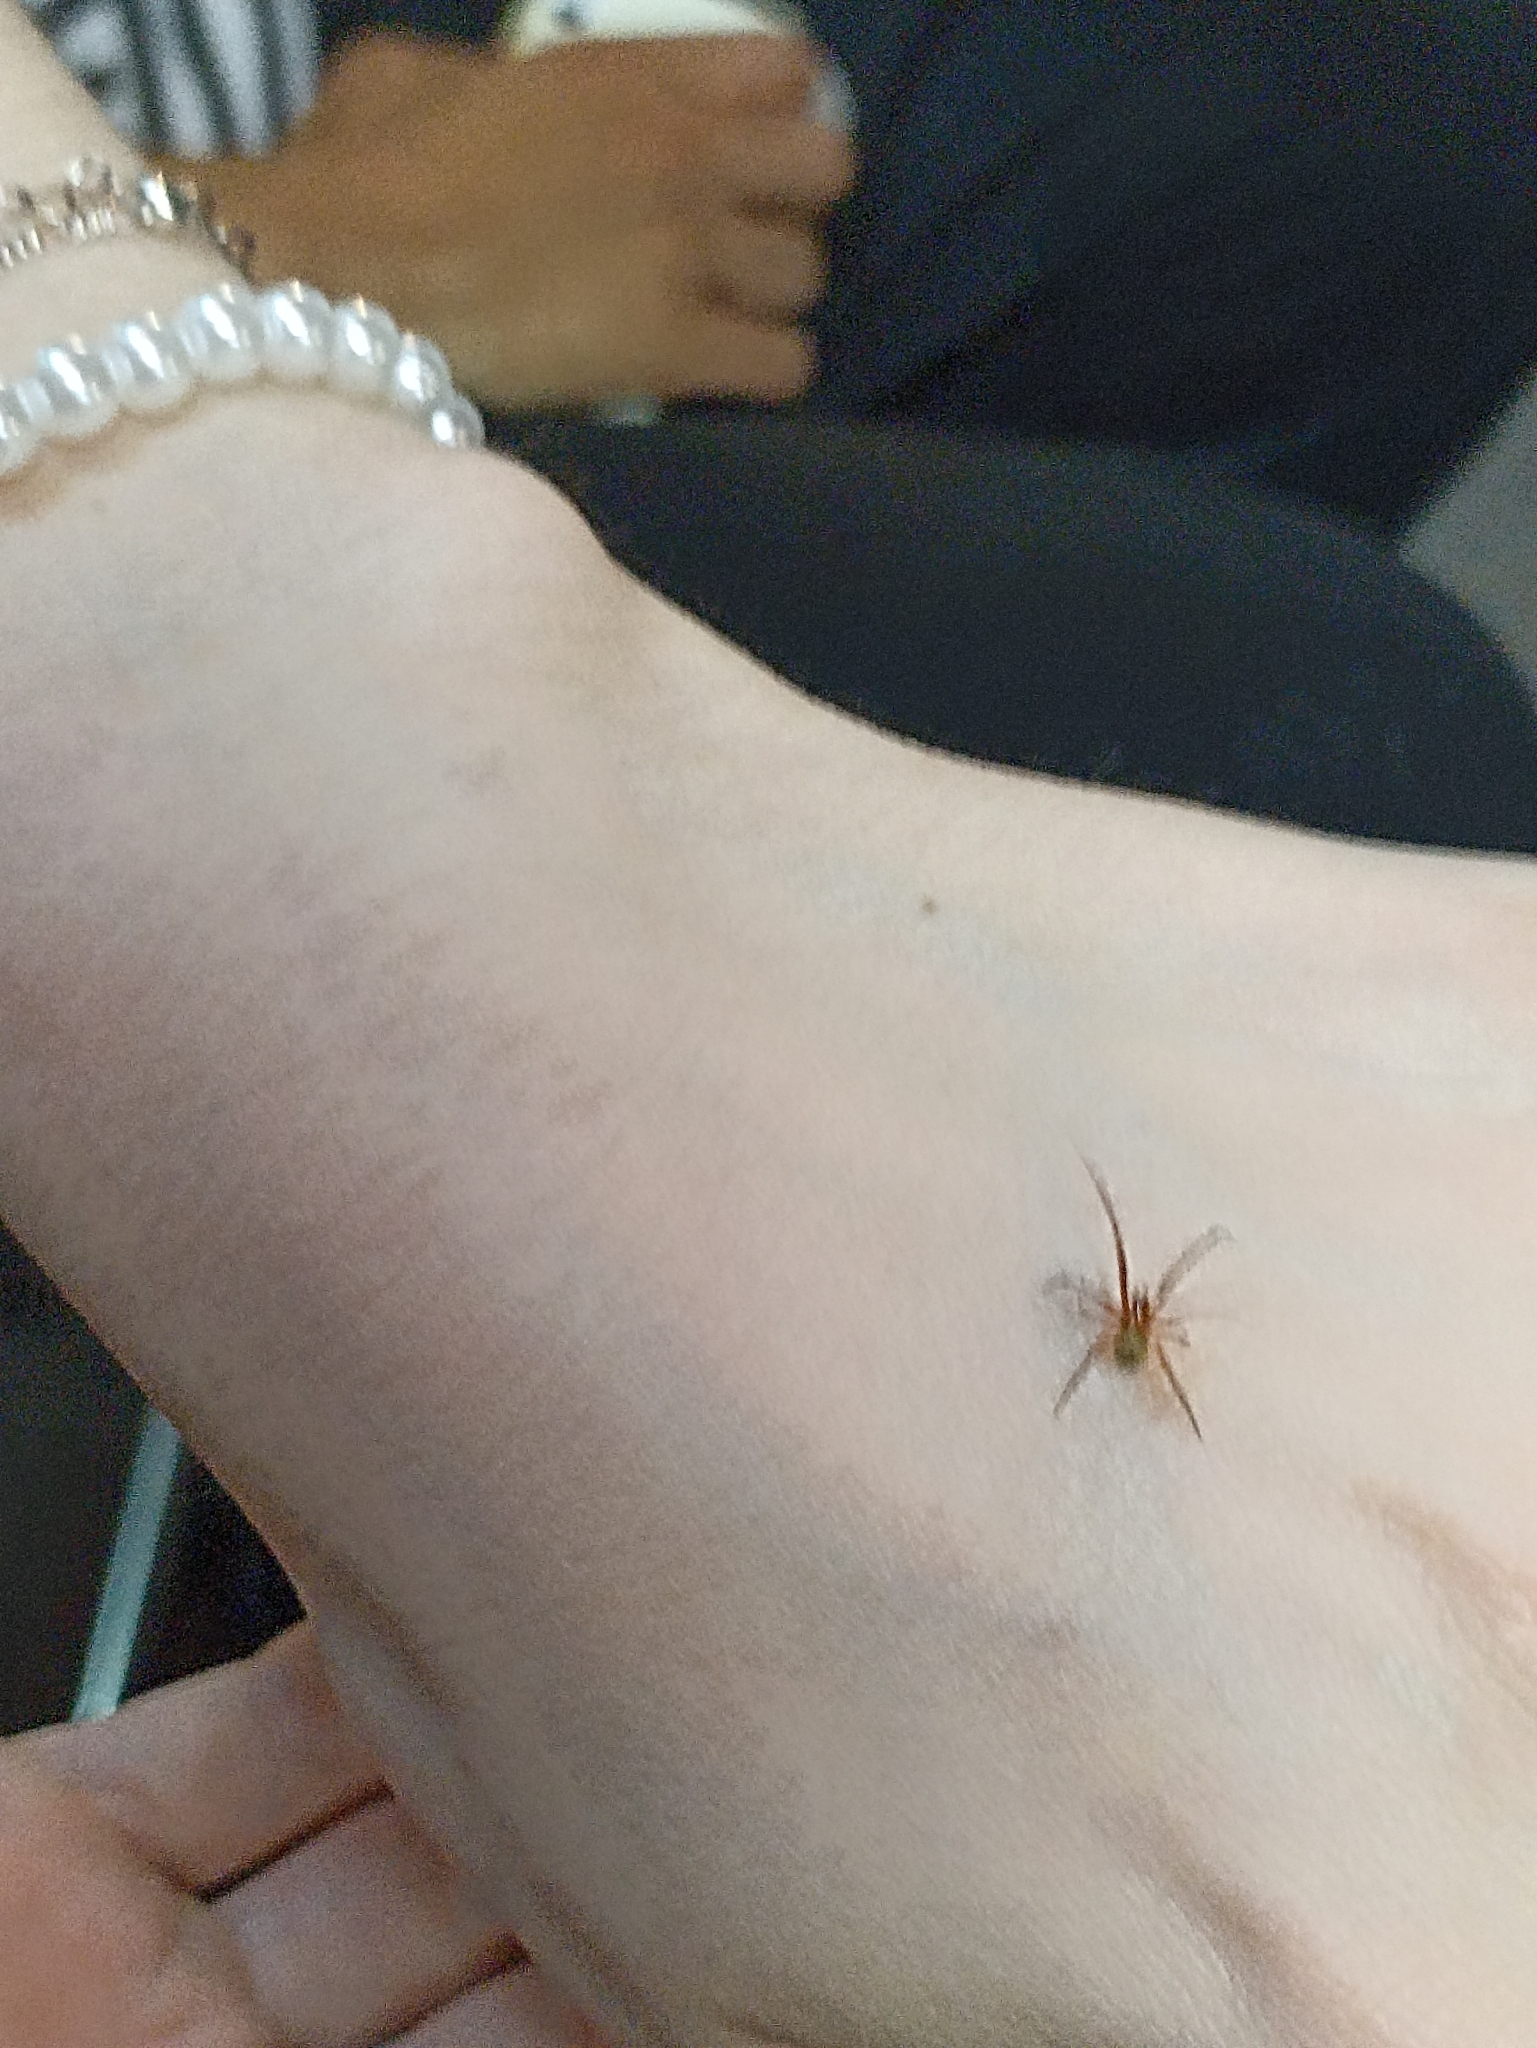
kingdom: Animalia
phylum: Arthropoda
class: Arachnida
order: Araneae
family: Theridiidae
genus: Nesticodes
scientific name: Nesticodes rufipes
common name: Cobweb spiders
